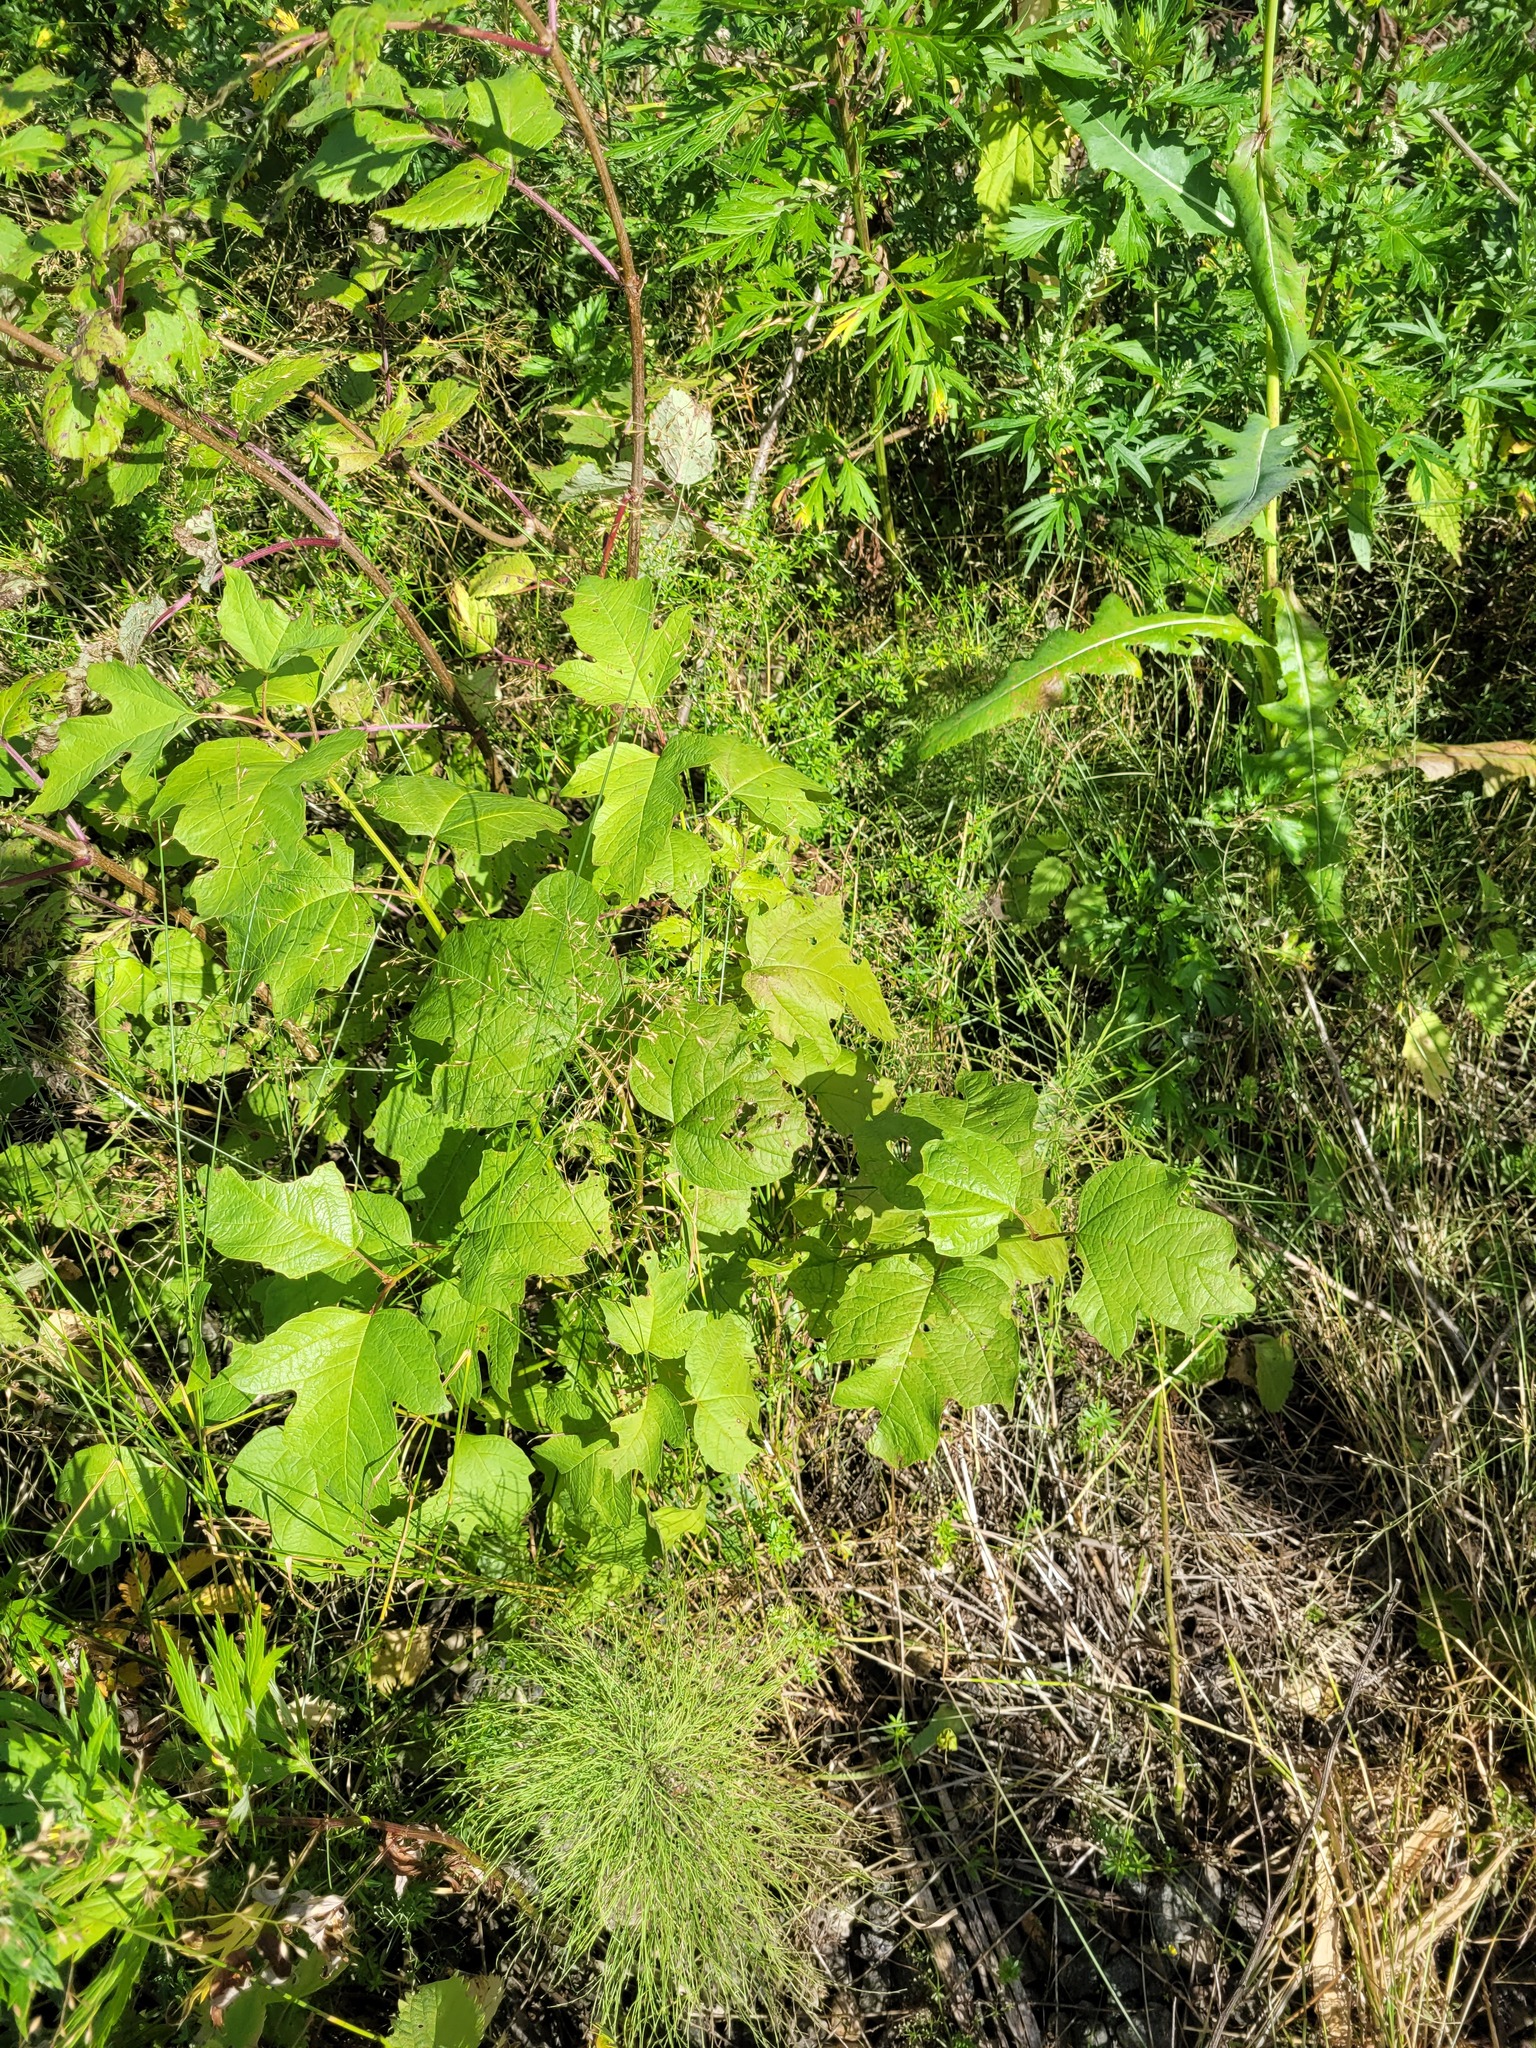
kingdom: Plantae
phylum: Tracheophyta
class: Magnoliopsida
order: Dipsacales
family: Viburnaceae
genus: Viburnum
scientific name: Viburnum opulus
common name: Guelder-rose
